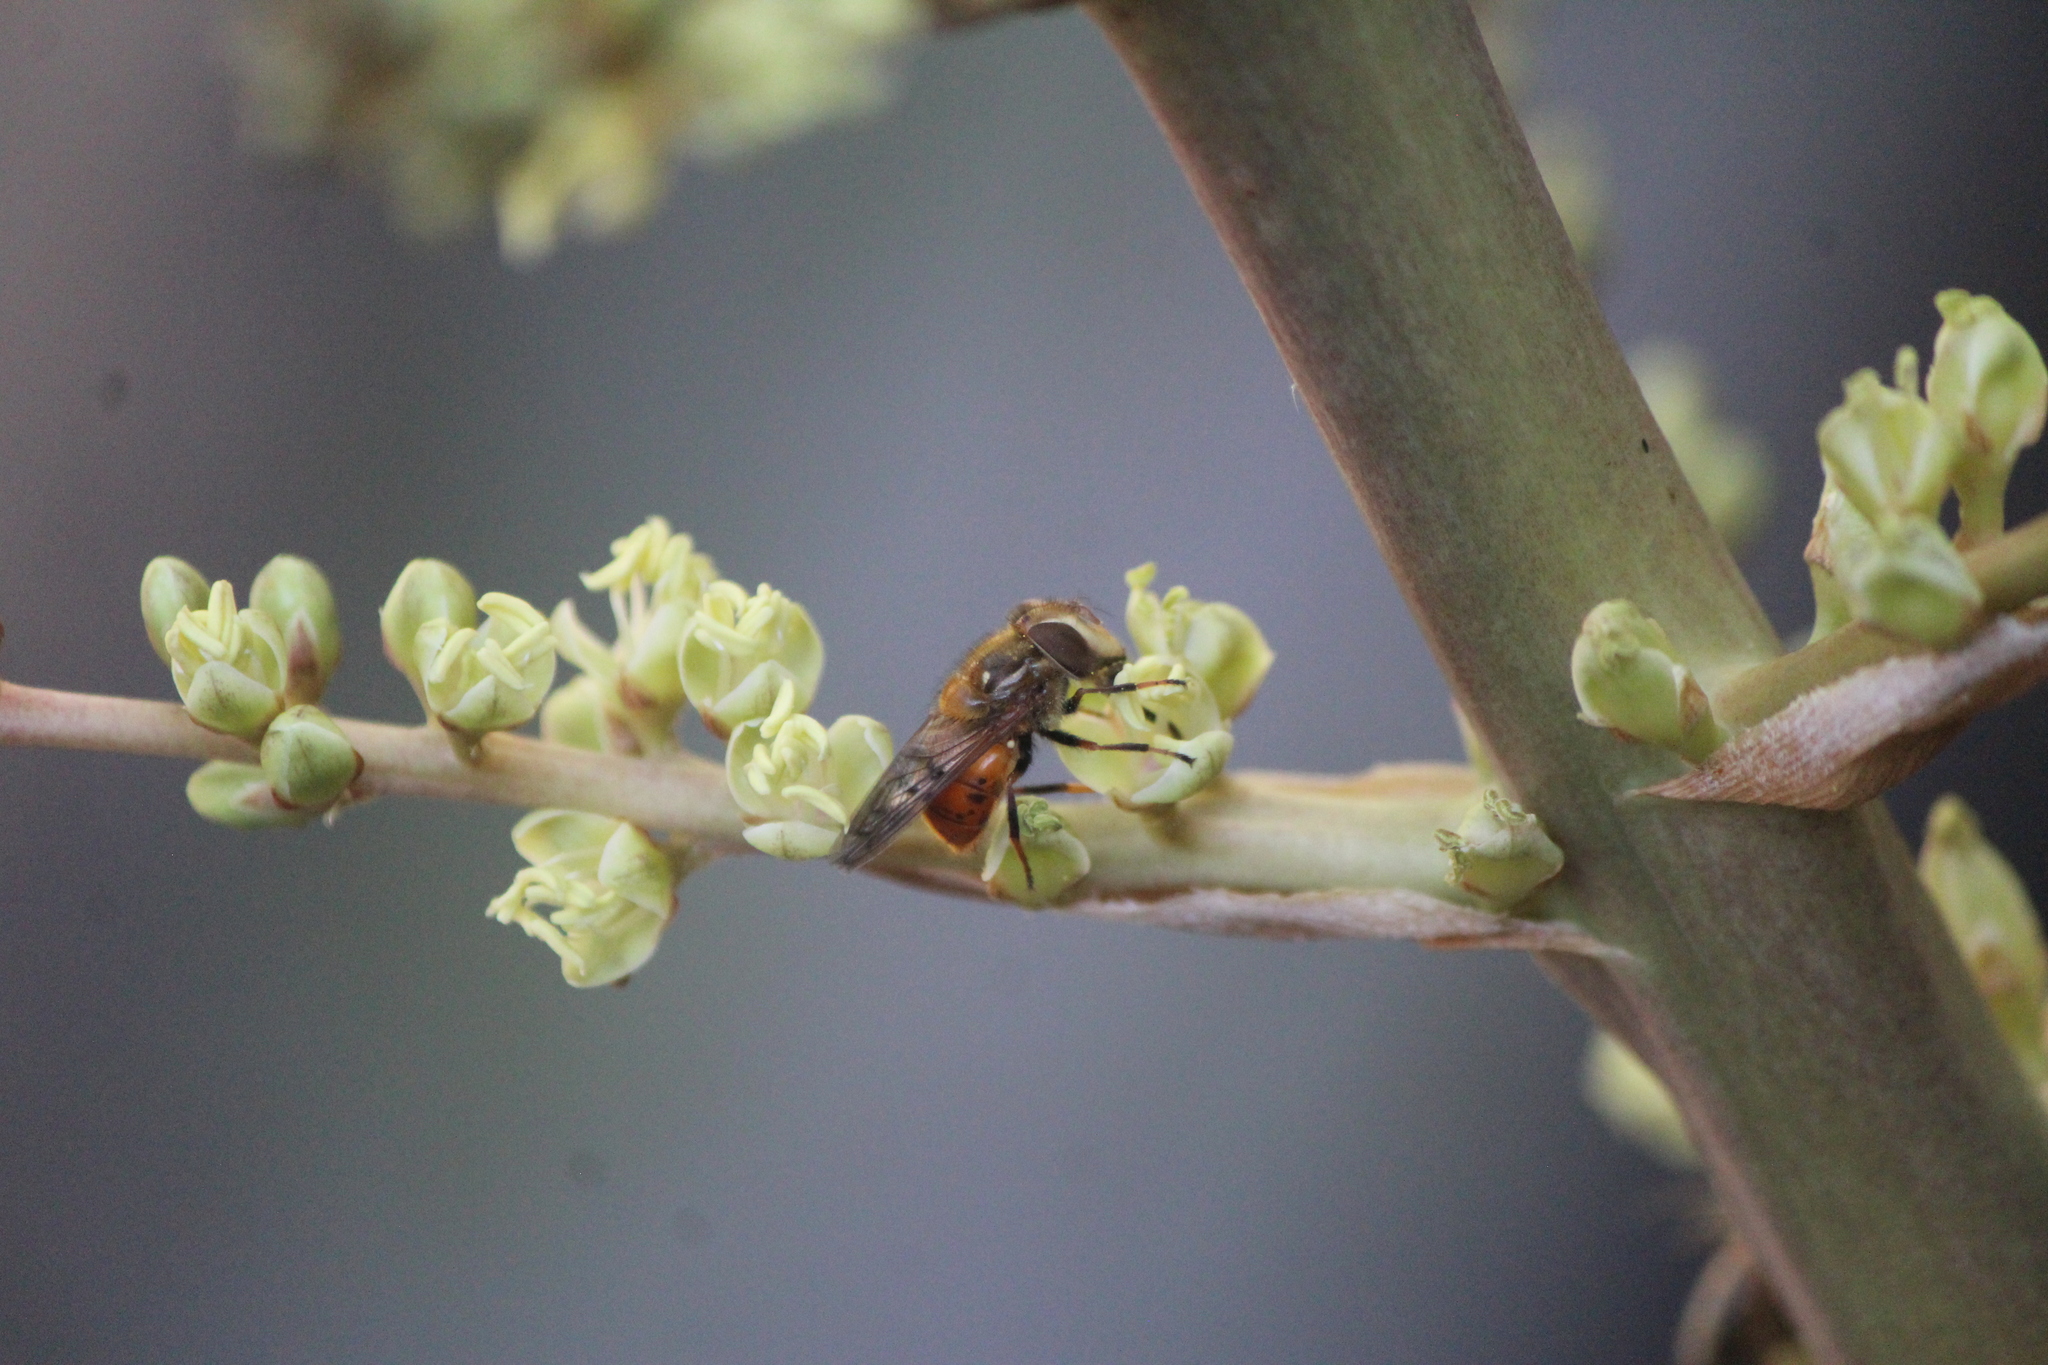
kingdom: Animalia
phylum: Arthropoda
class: Insecta
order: Diptera
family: Syrphidae
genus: Copestylum
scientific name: Copestylum melleum
